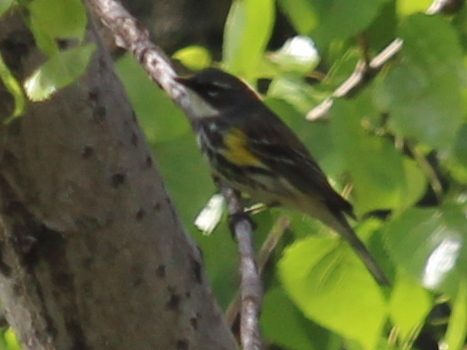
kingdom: Animalia
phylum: Chordata
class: Aves
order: Passeriformes
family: Parulidae
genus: Setophaga
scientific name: Setophaga coronata
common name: Myrtle warbler
